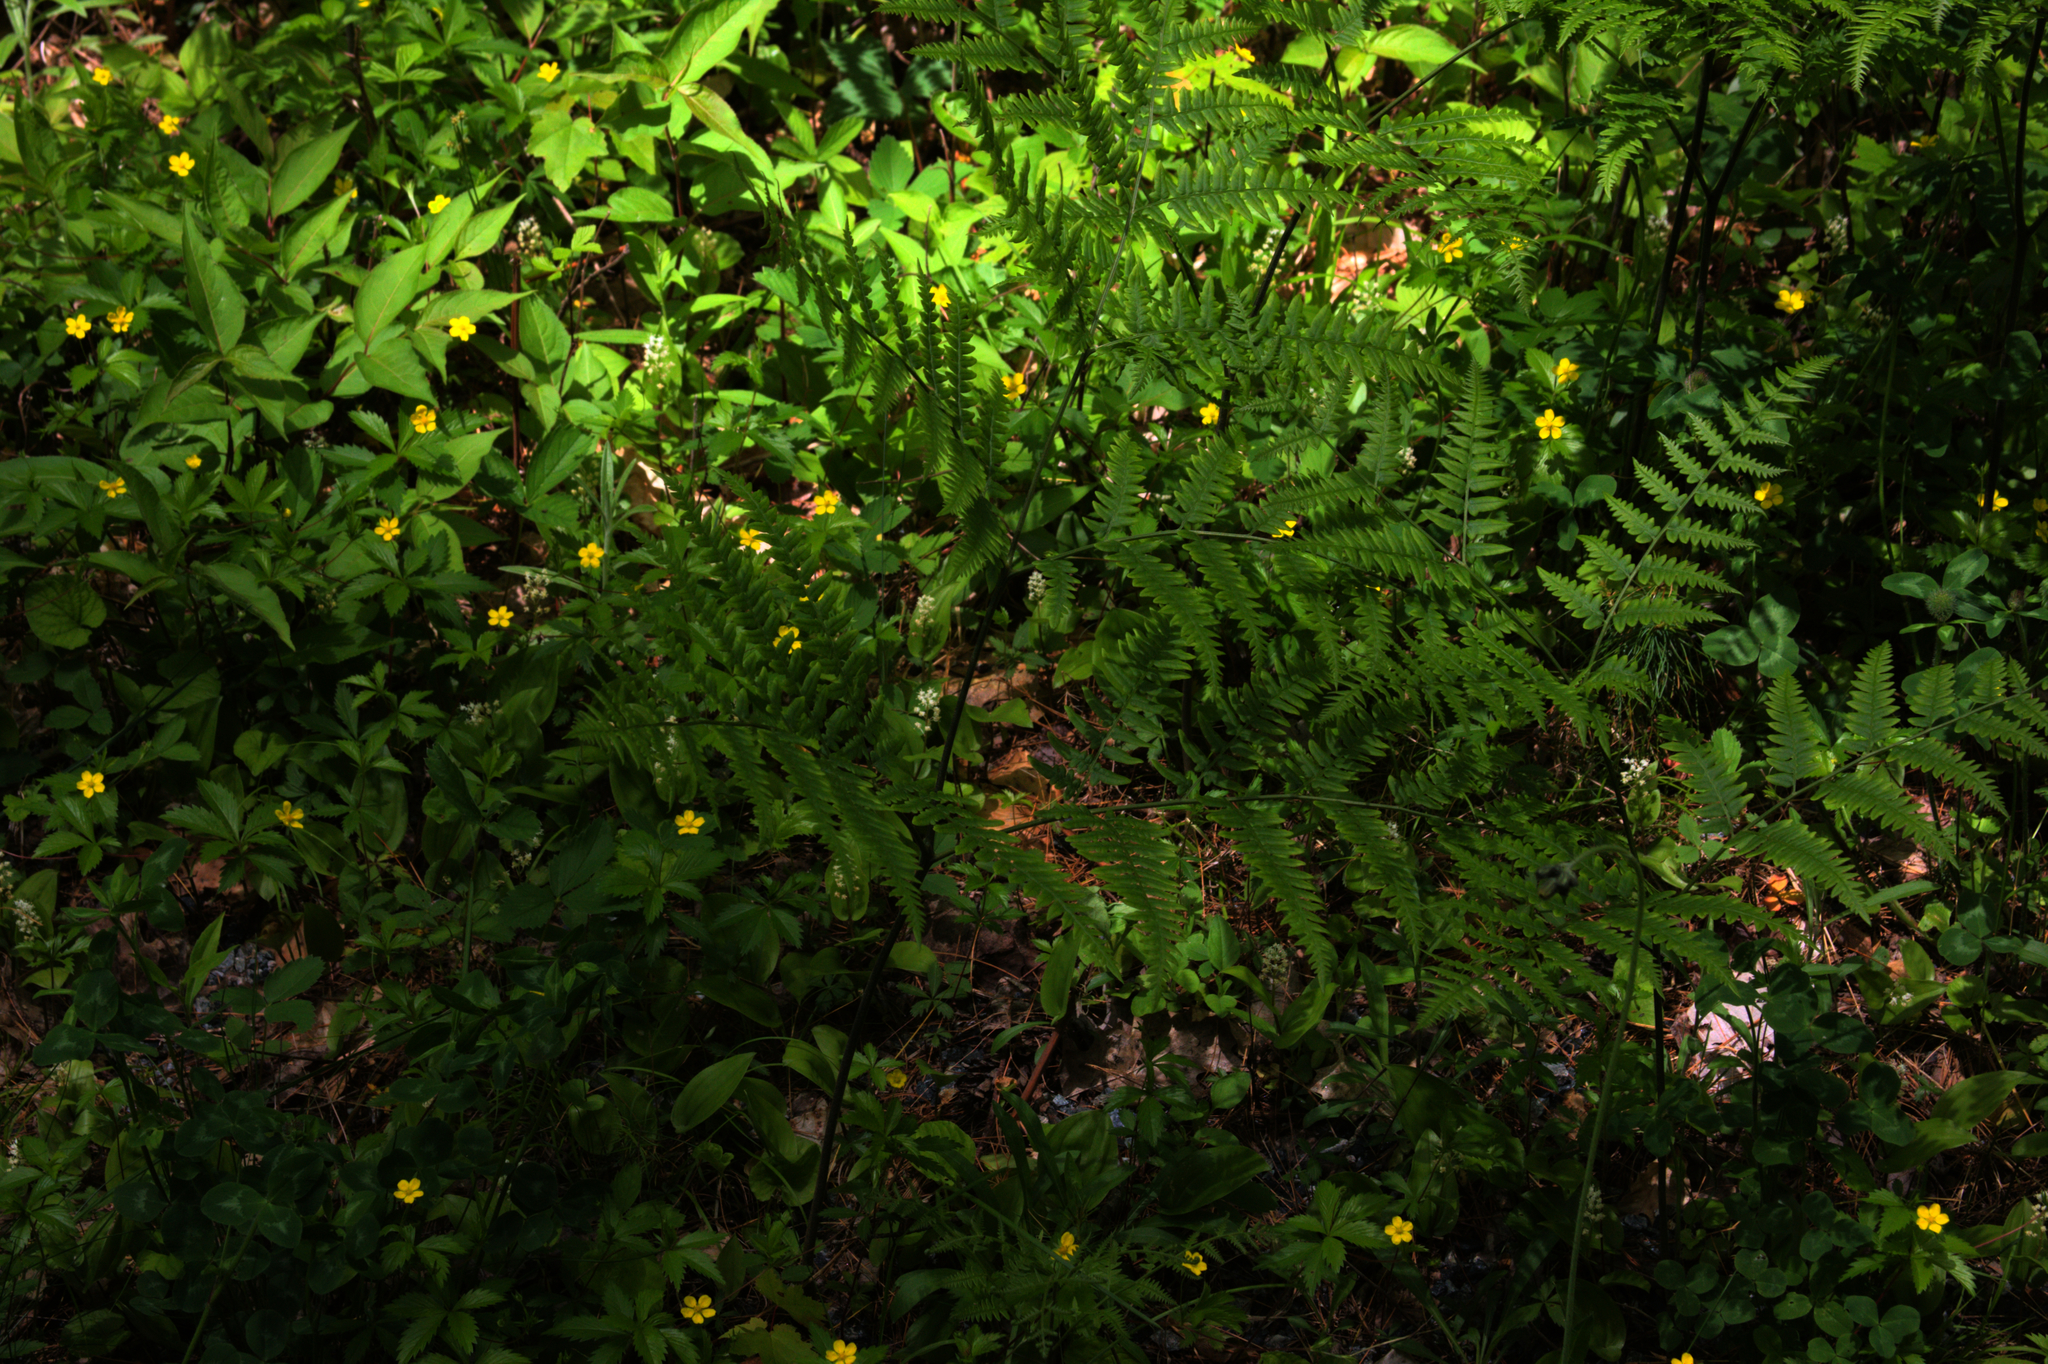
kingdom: Plantae
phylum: Tracheophyta
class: Polypodiopsida
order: Polypodiales
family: Dennstaedtiaceae
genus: Pteridium
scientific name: Pteridium aquilinum
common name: Bracken
